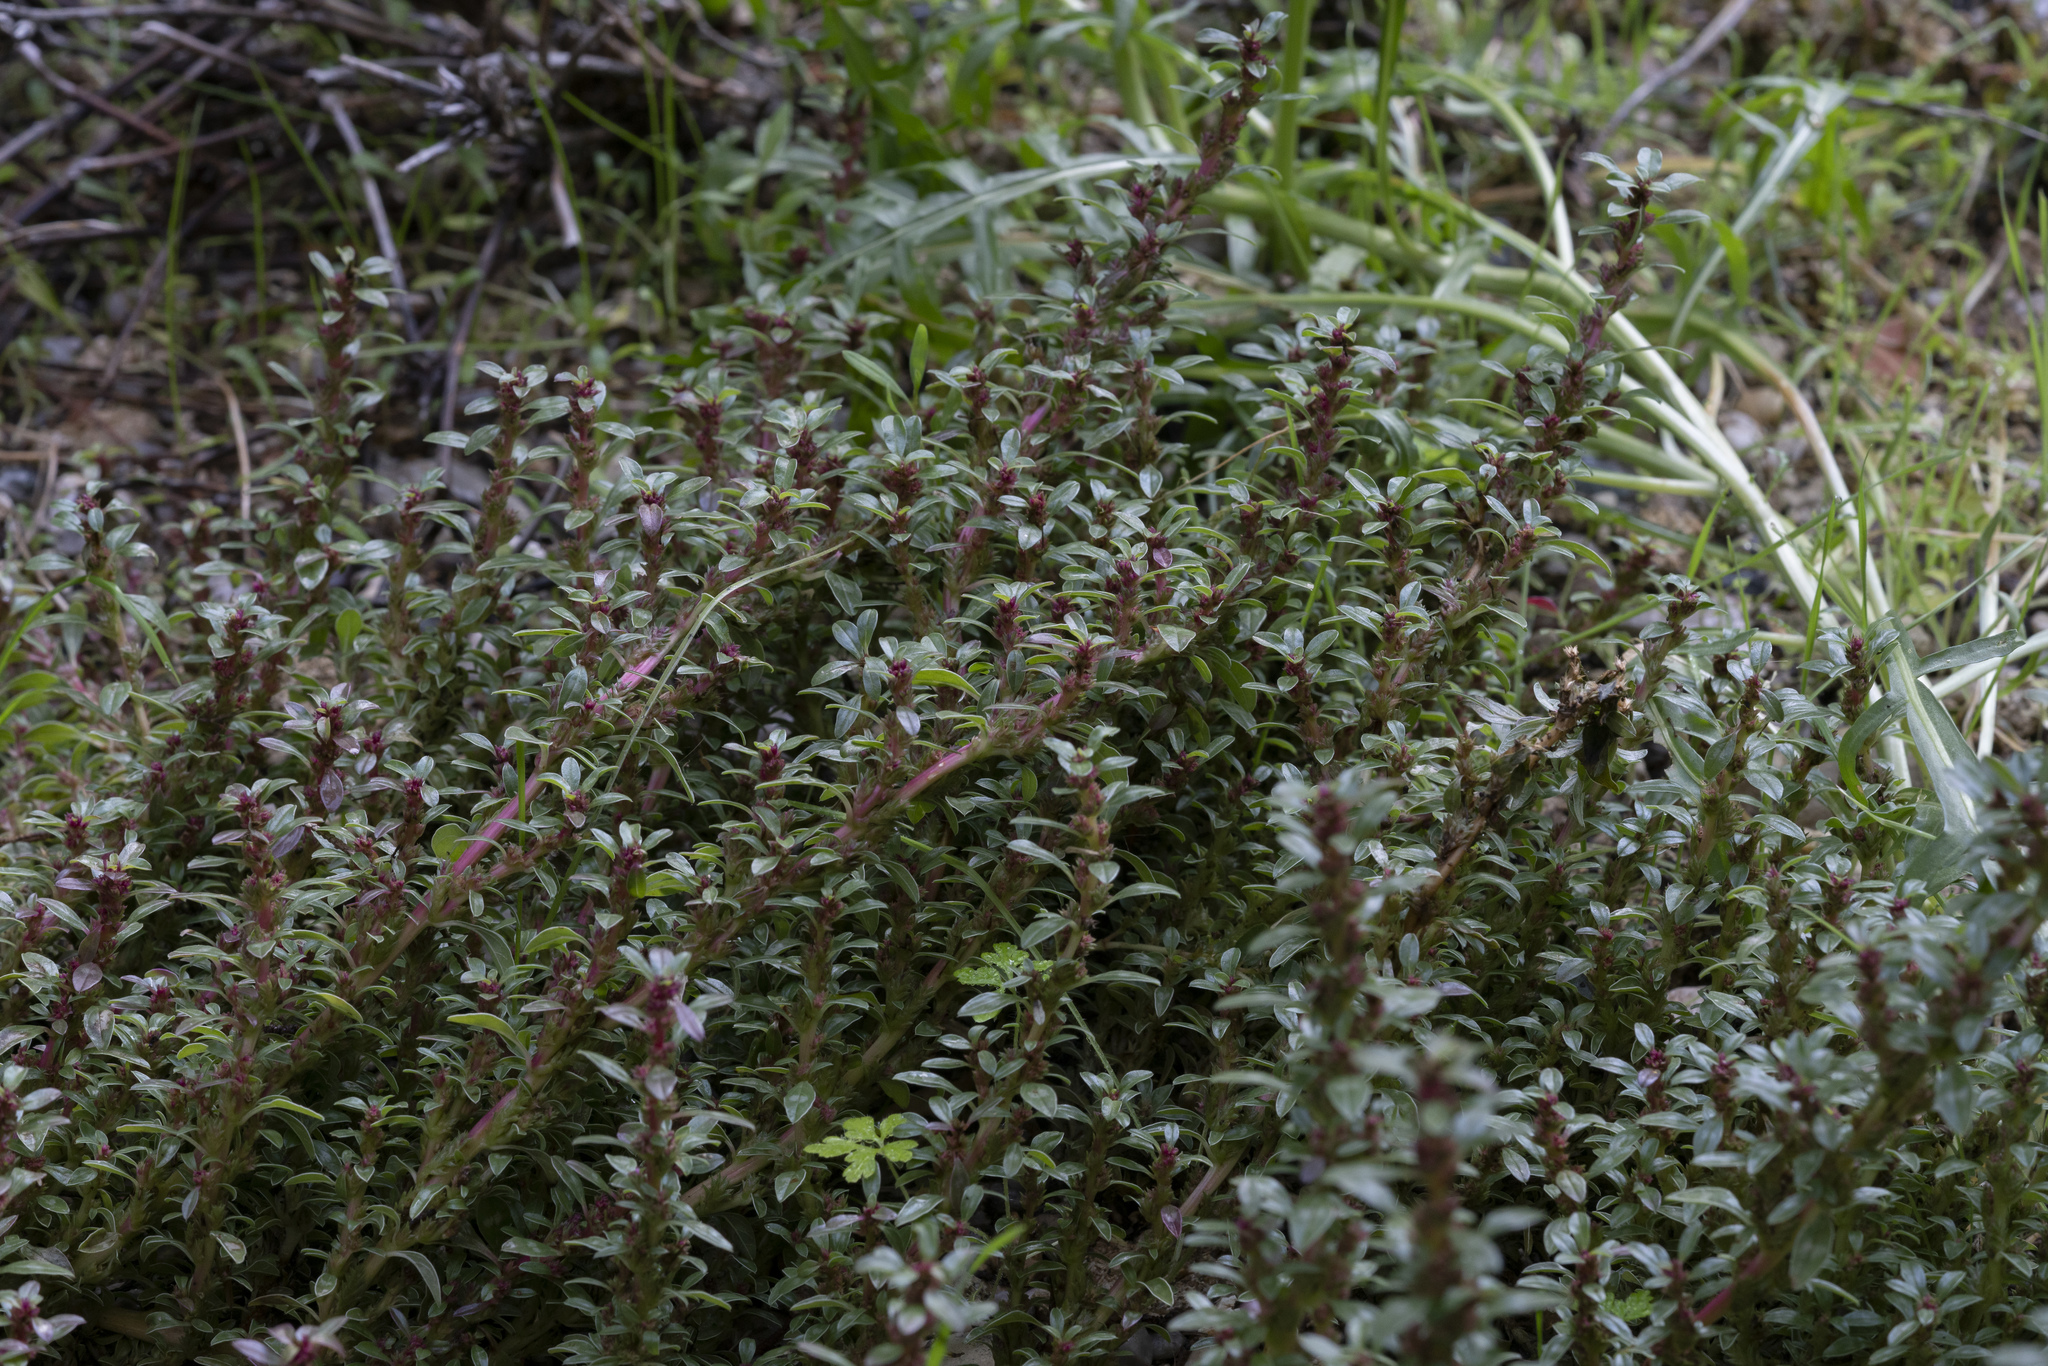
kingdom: Plantae
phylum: Tracheophyta
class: Magnoliopsida
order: Caryophyllales
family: Amaranthaceae
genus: Amaranthus
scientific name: Amaranthus blitoides
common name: Prostrate pigweed
